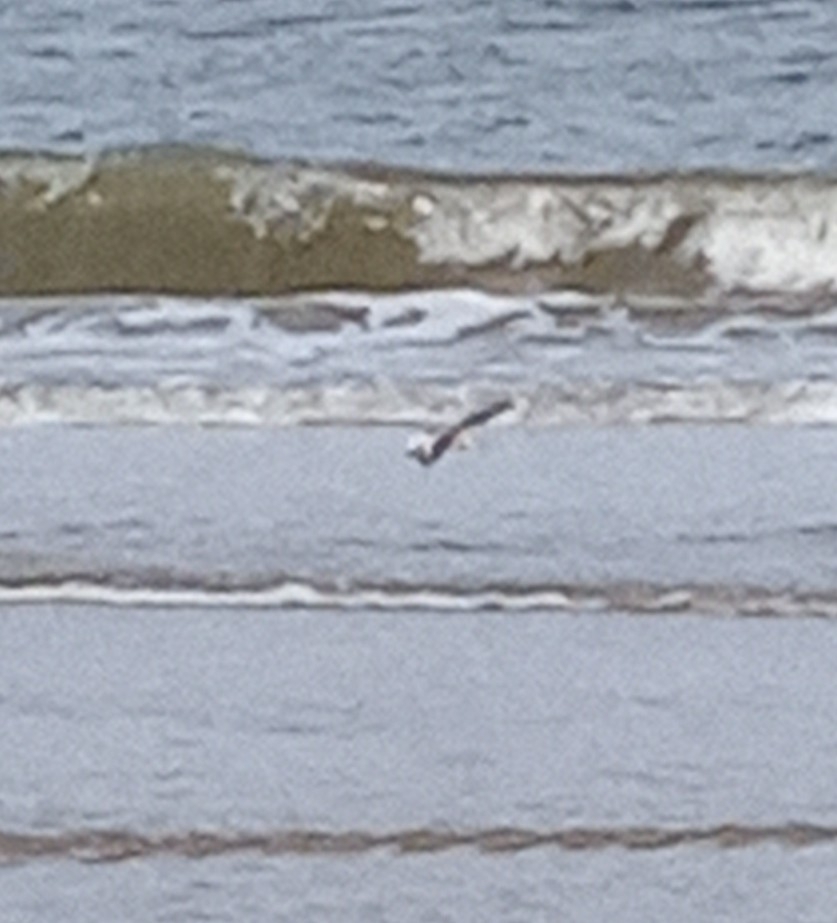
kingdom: Animalia
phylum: Chordata
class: Aves
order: Charadriiformes
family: Scolopacidae
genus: Calidris
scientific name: Calidris alba
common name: Sanderling
